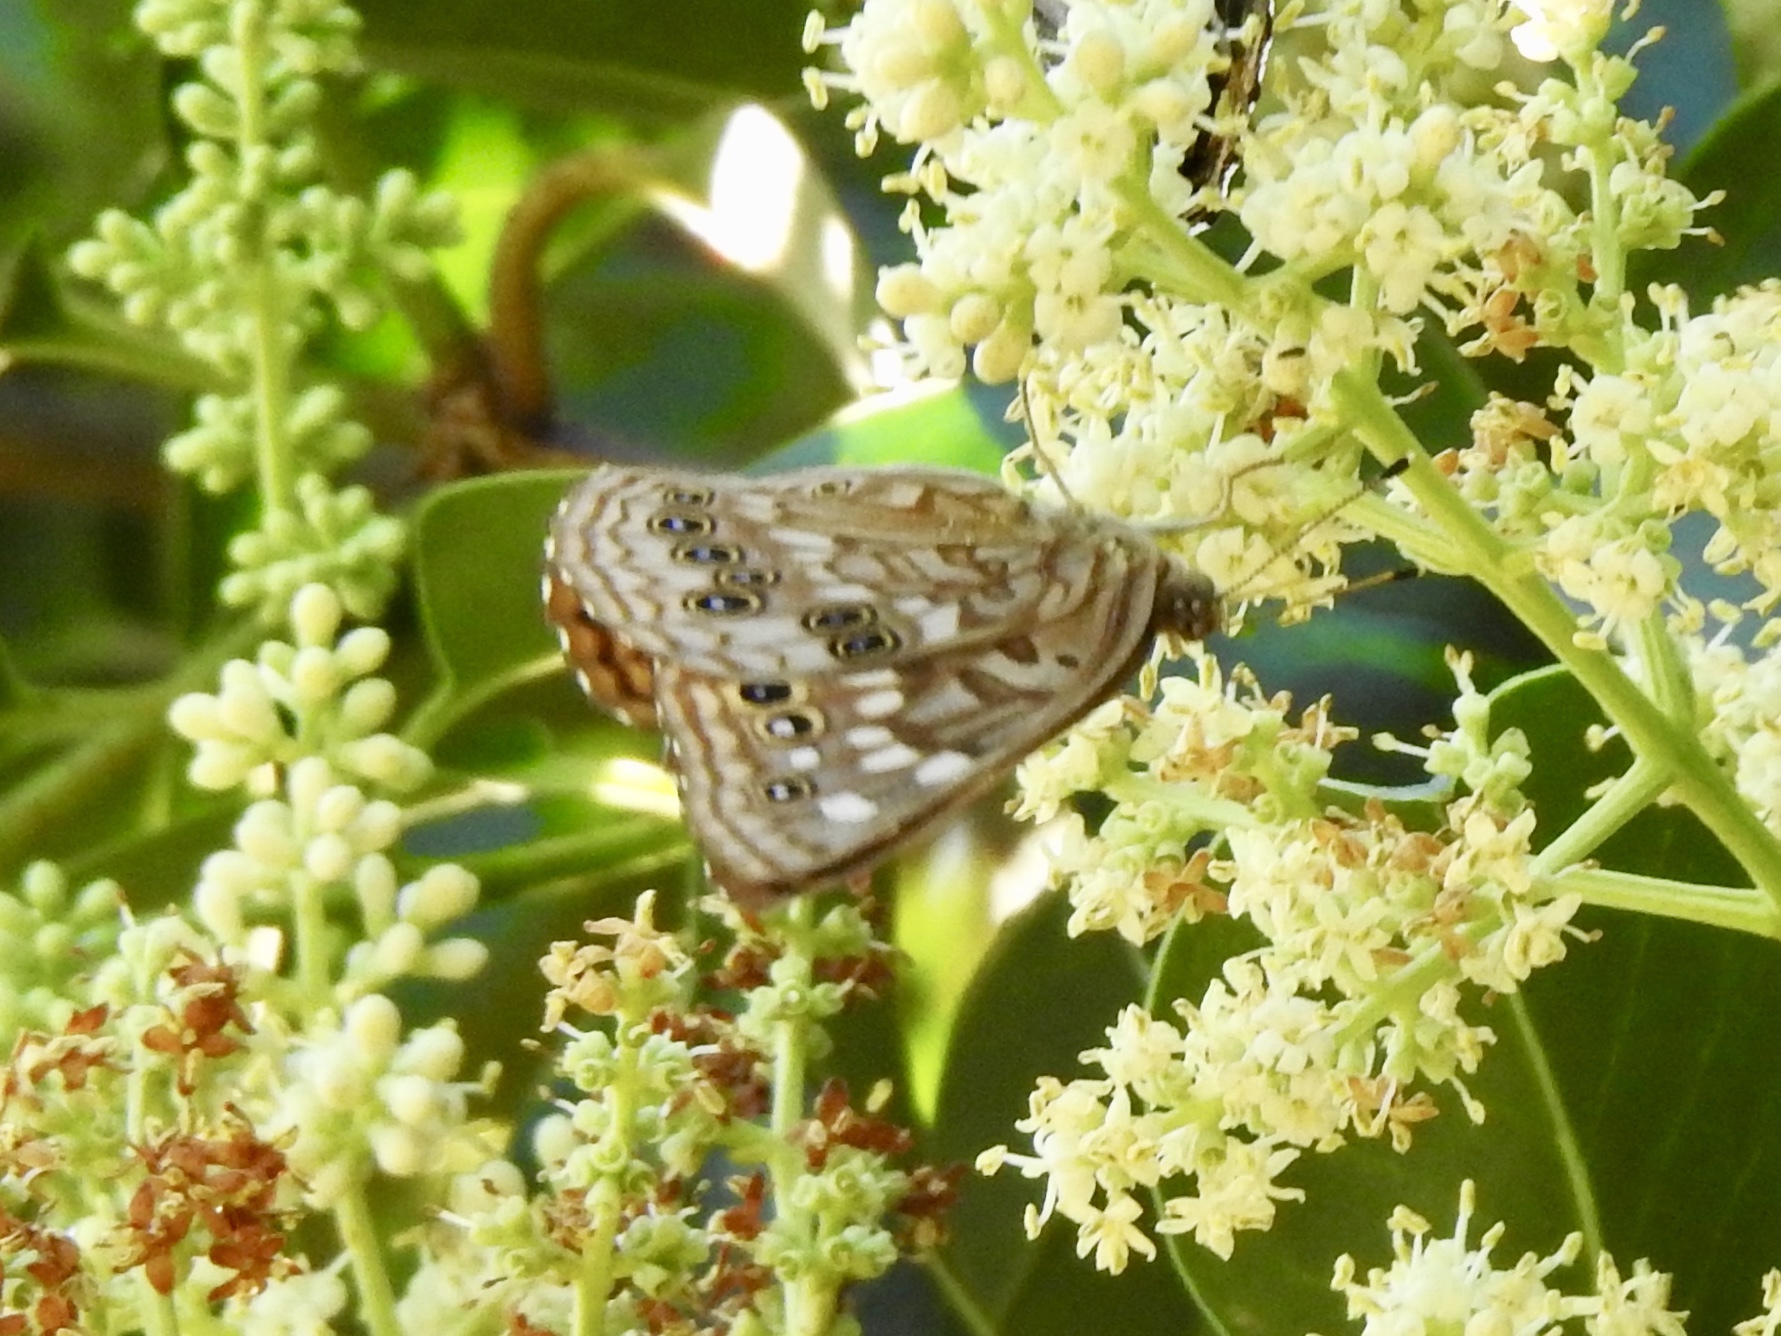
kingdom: Animalia
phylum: Arthropoda
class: Insecta
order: Lepidoptera
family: Nymphalidae
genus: Asterocampa
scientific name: Asterocampa celtis
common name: Hackberry emperor
